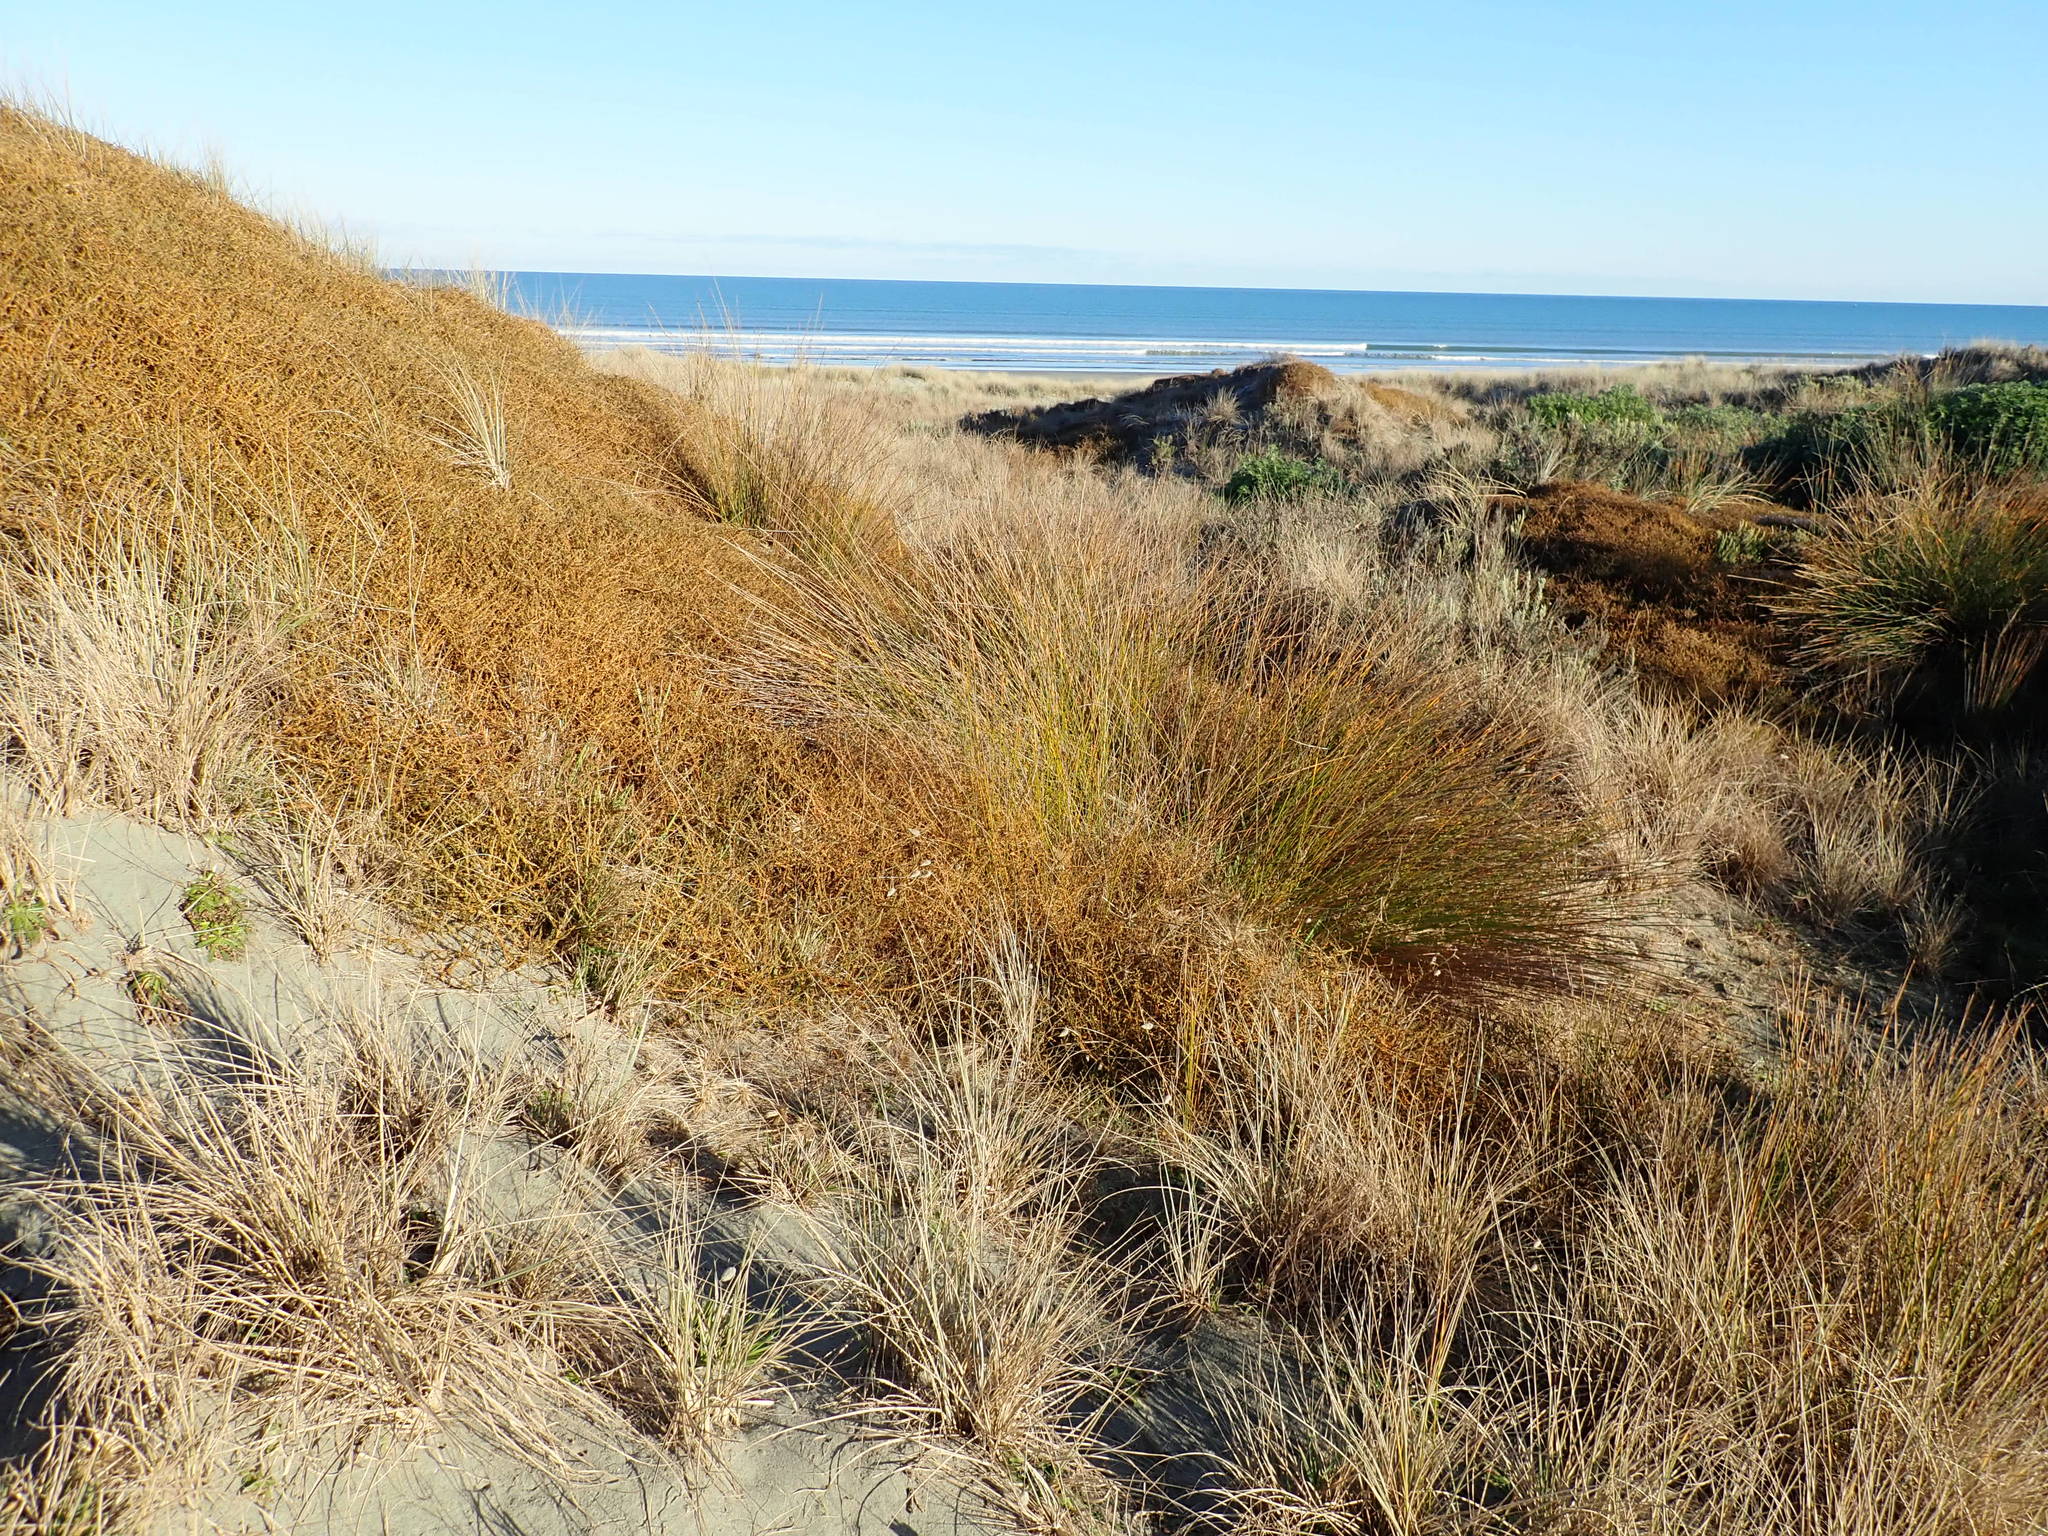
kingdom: Plantae
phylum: Tracheophyta
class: Liliopsida
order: Poales
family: Cyperaceae
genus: Ficinia
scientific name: Ficinia nodosa
